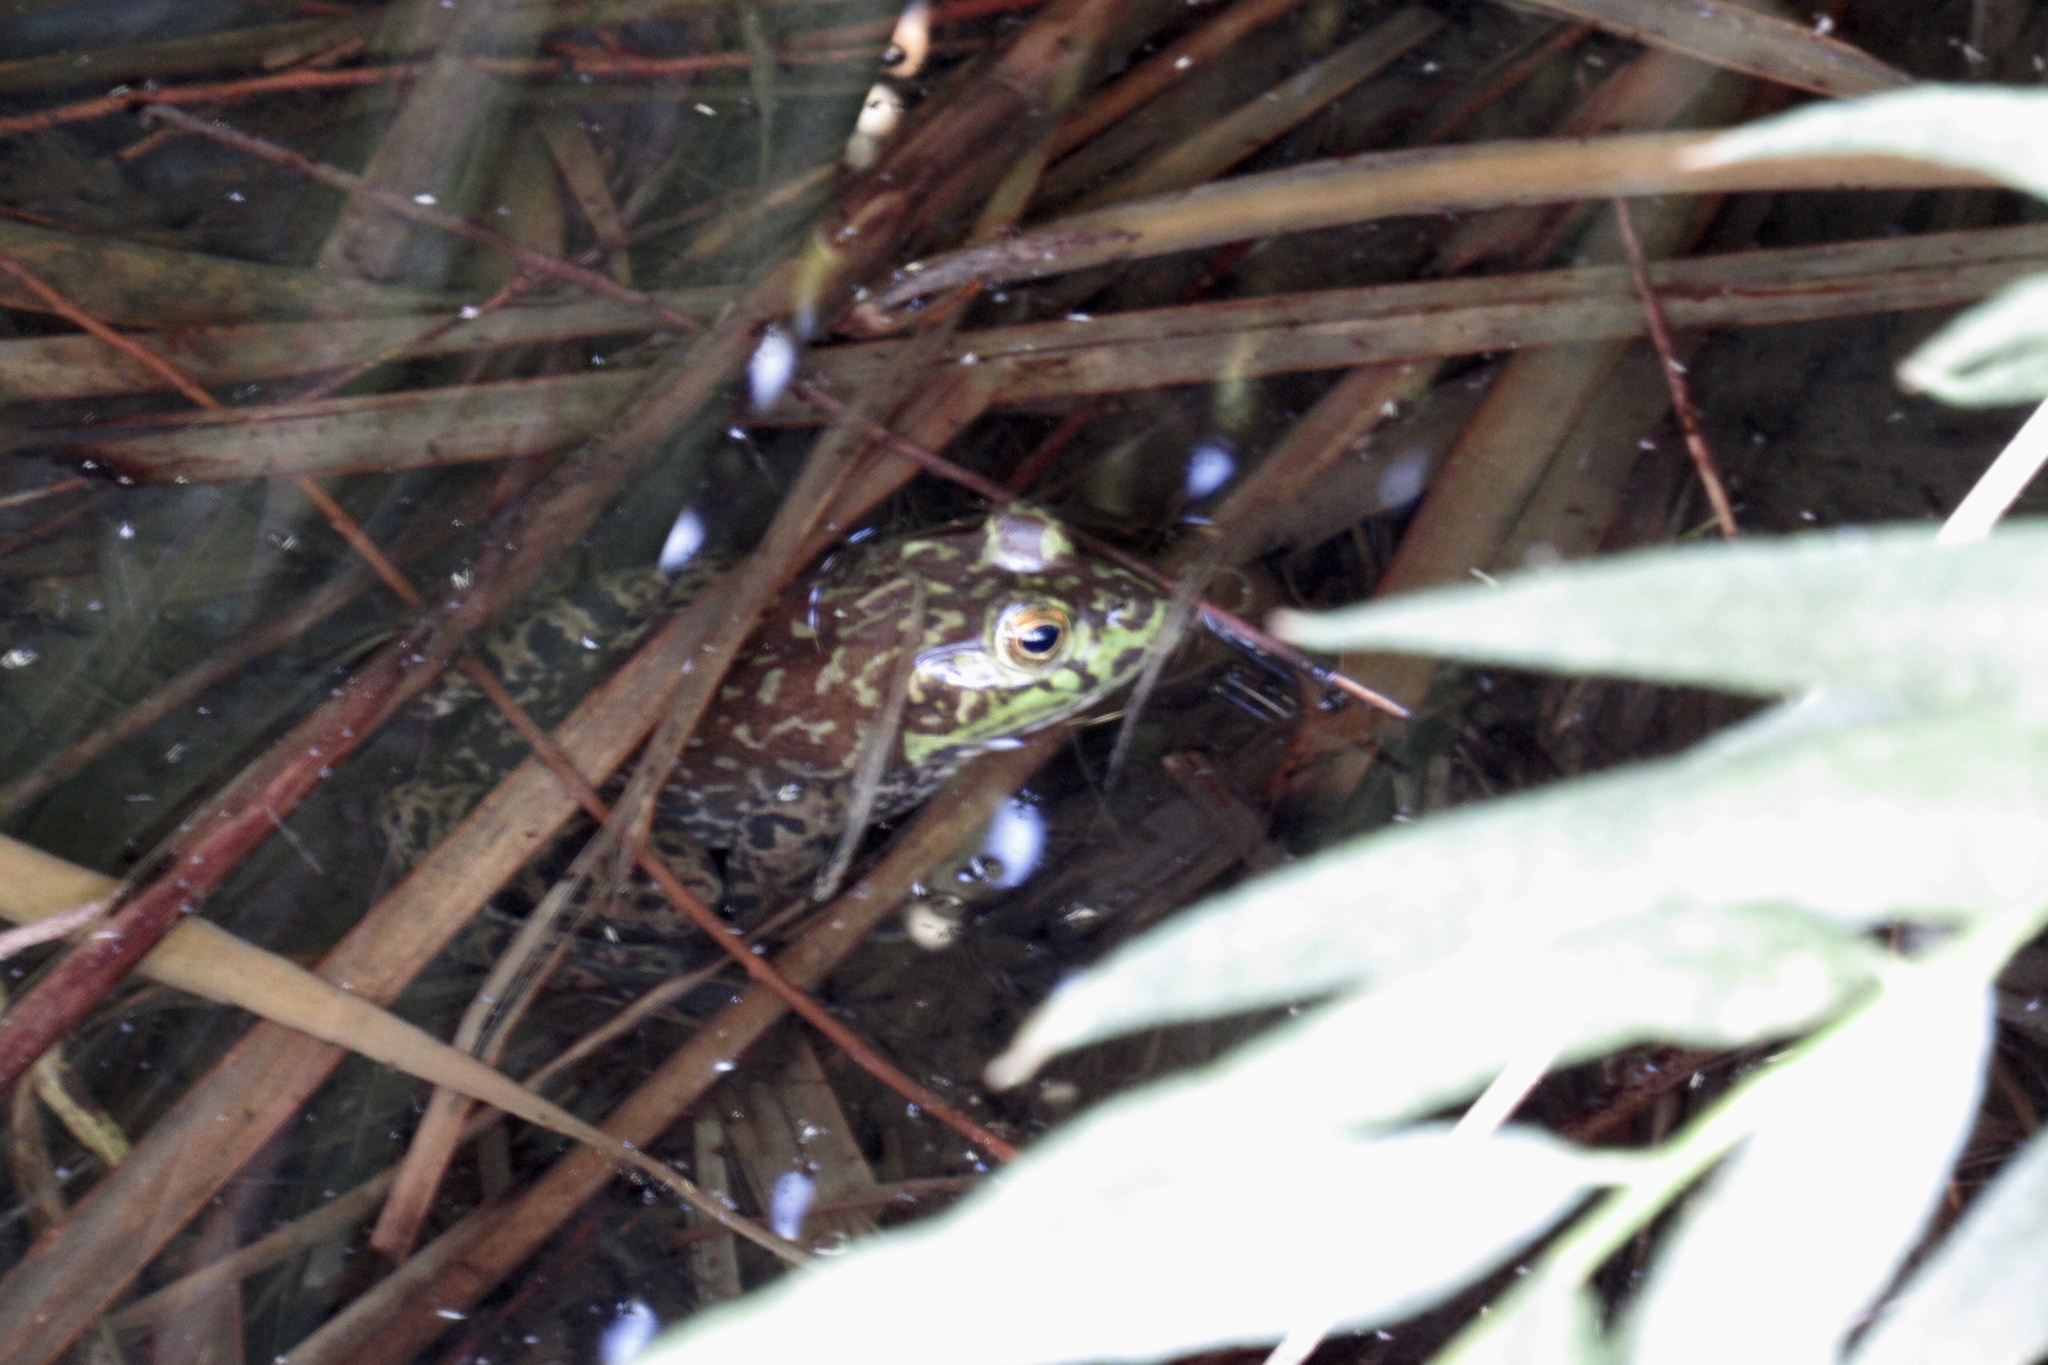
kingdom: Animalia
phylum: Chordata
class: Amphibia
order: Anura
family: Ranidae
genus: Lithobates
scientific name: Lithobates catesbeianus
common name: American bullfrog
